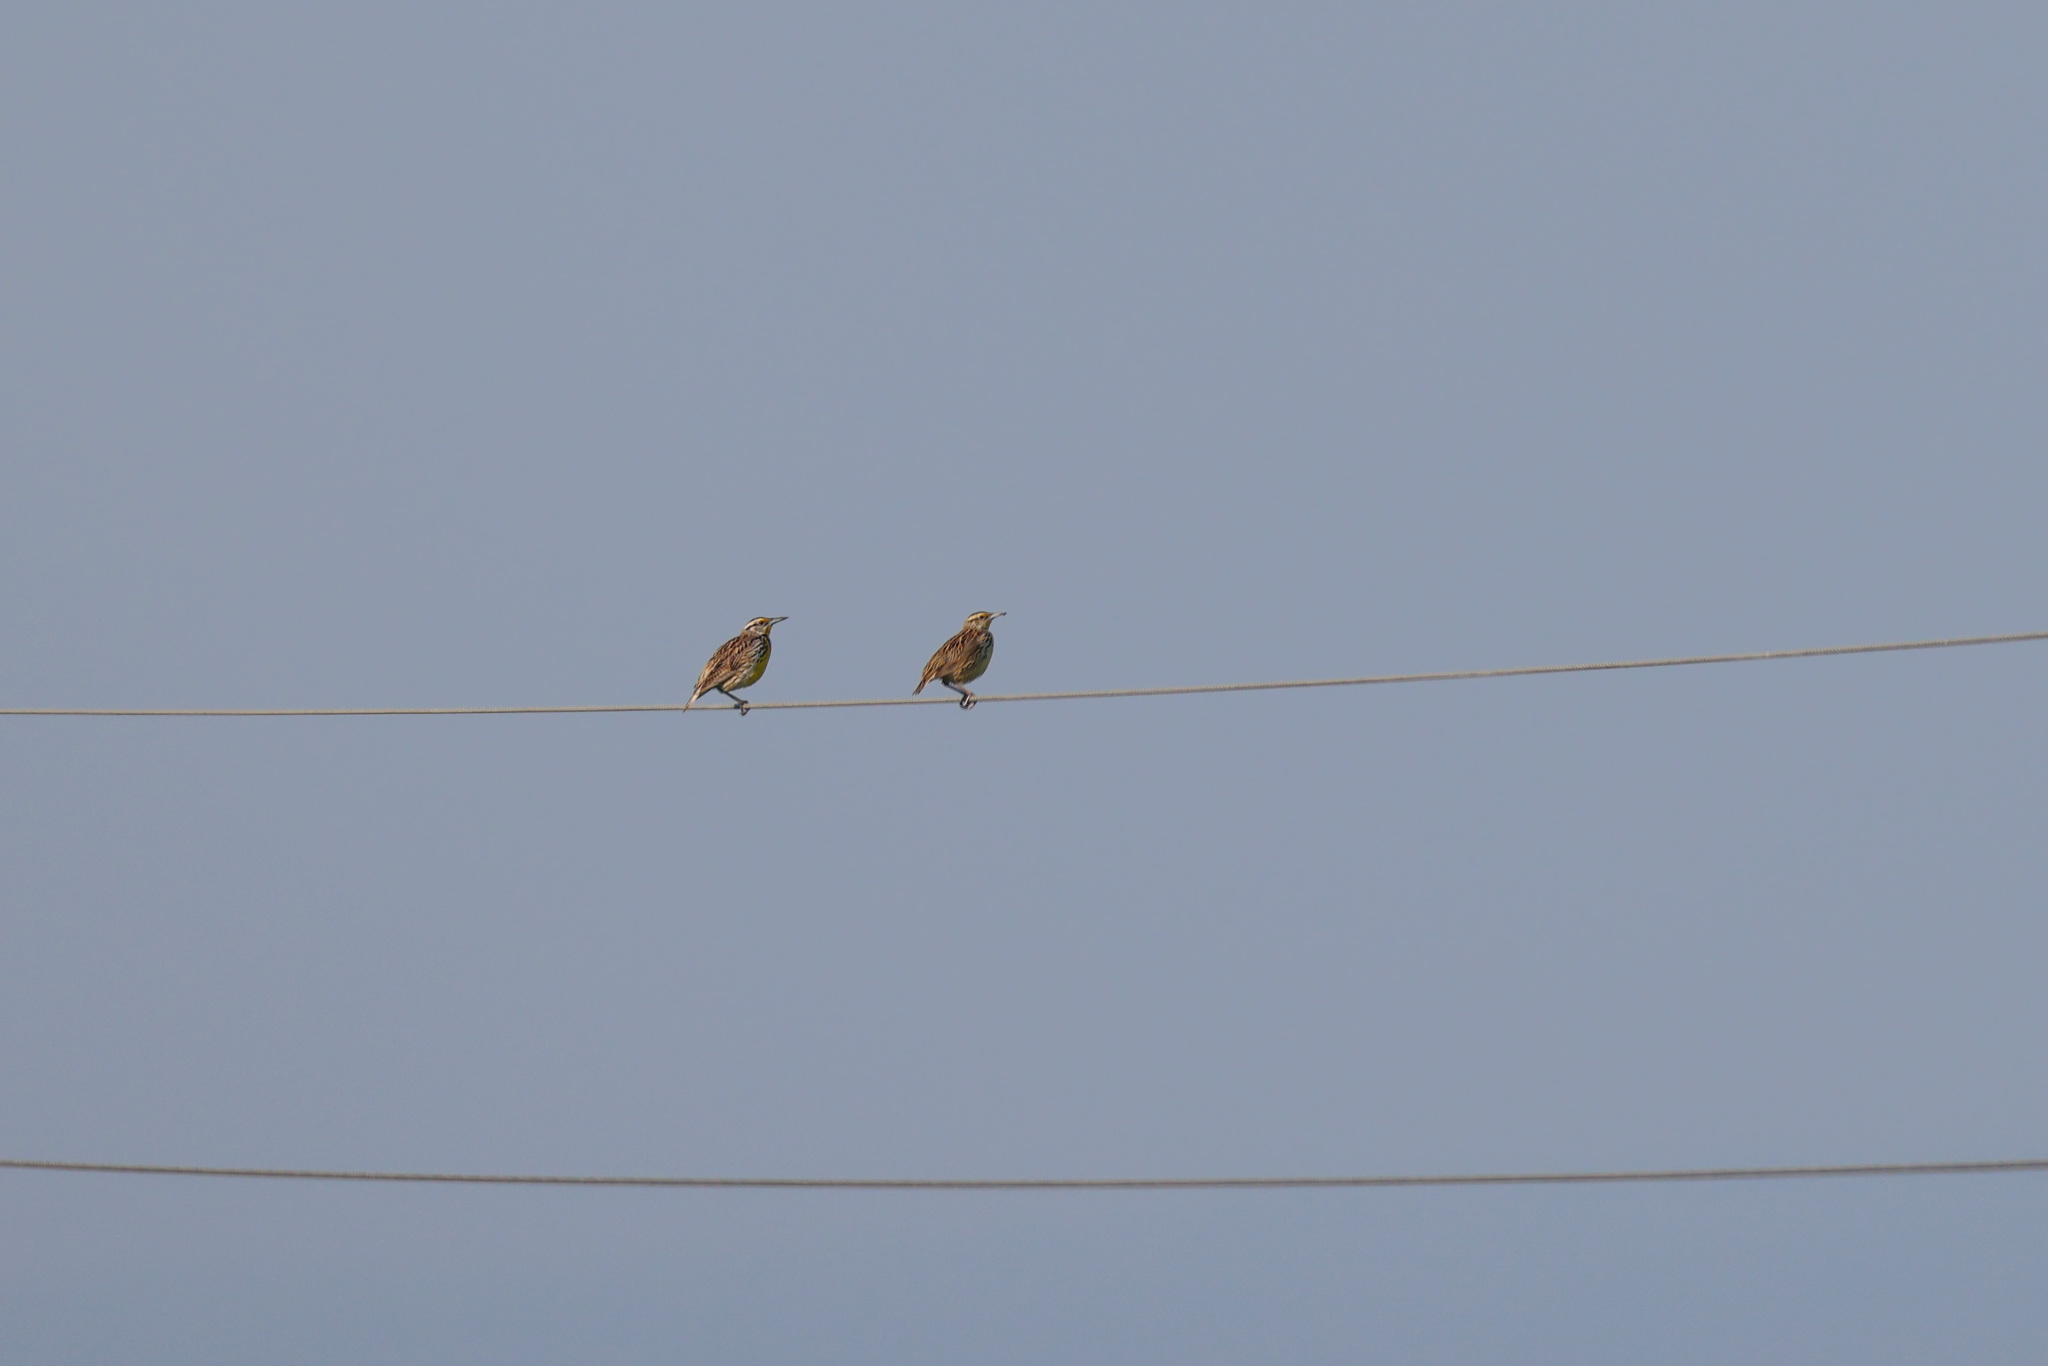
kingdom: Animalia
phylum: Chordata
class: Aves
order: Passeriformes
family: Icteridae
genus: Sturnella
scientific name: Sturnella magna
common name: Eastern meadowlark
